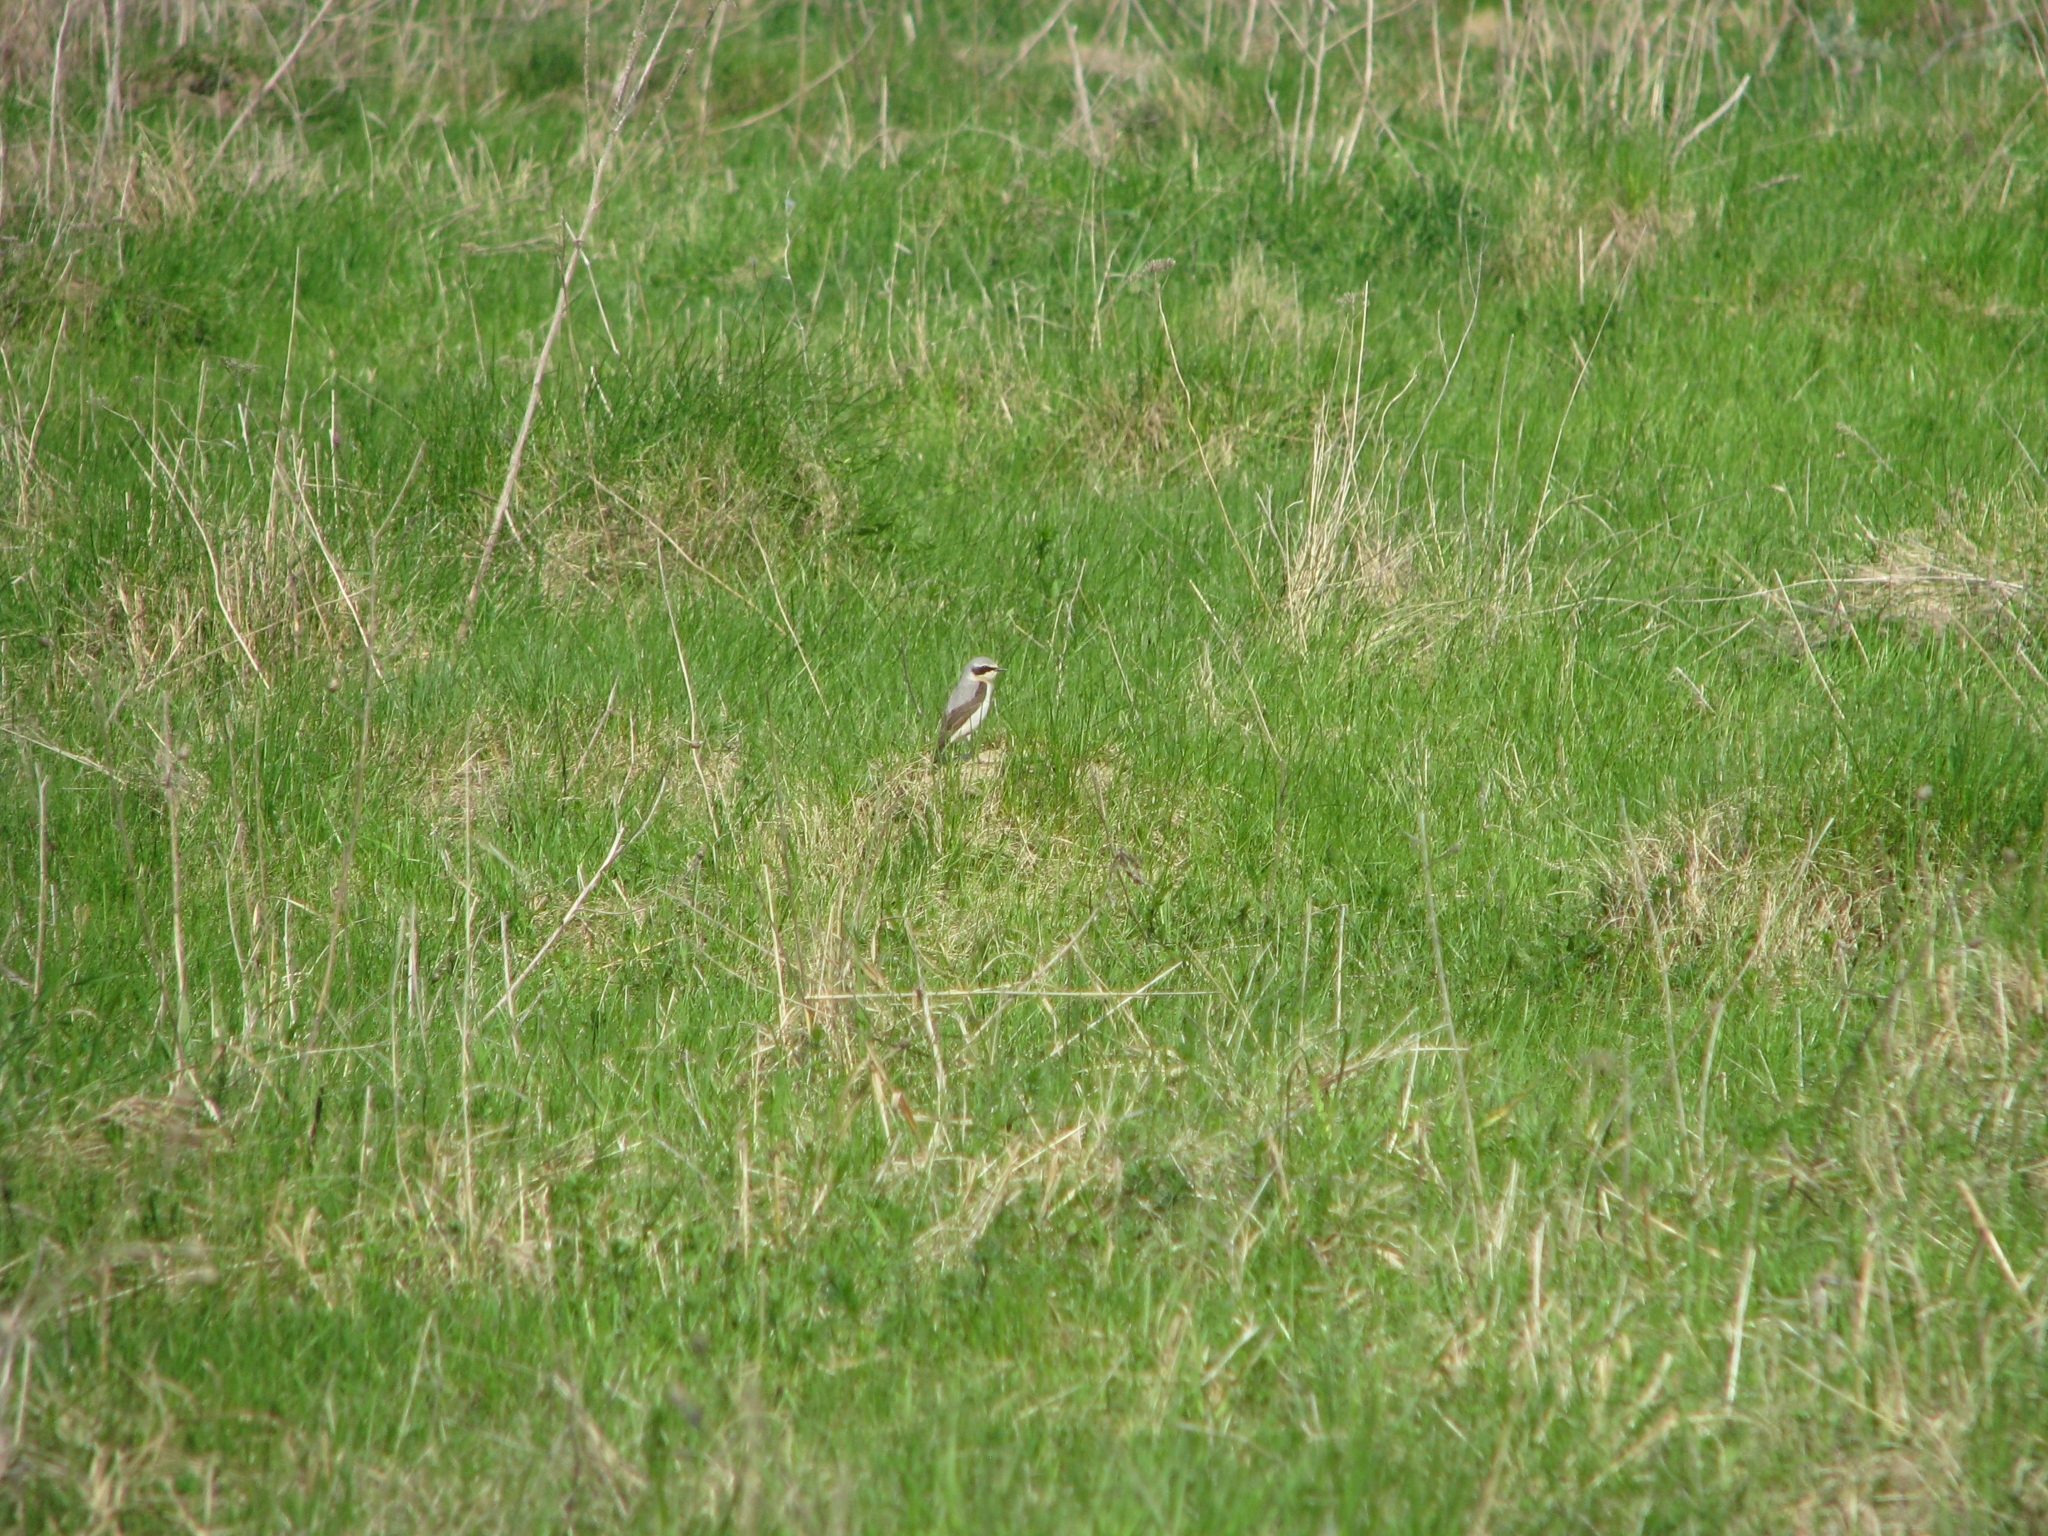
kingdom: Animalia
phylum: Chordata
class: Aves
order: Passeriformes
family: Muscicapidae
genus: Oenanthe
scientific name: Oenanthe oenanthe
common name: Northern wheatear
